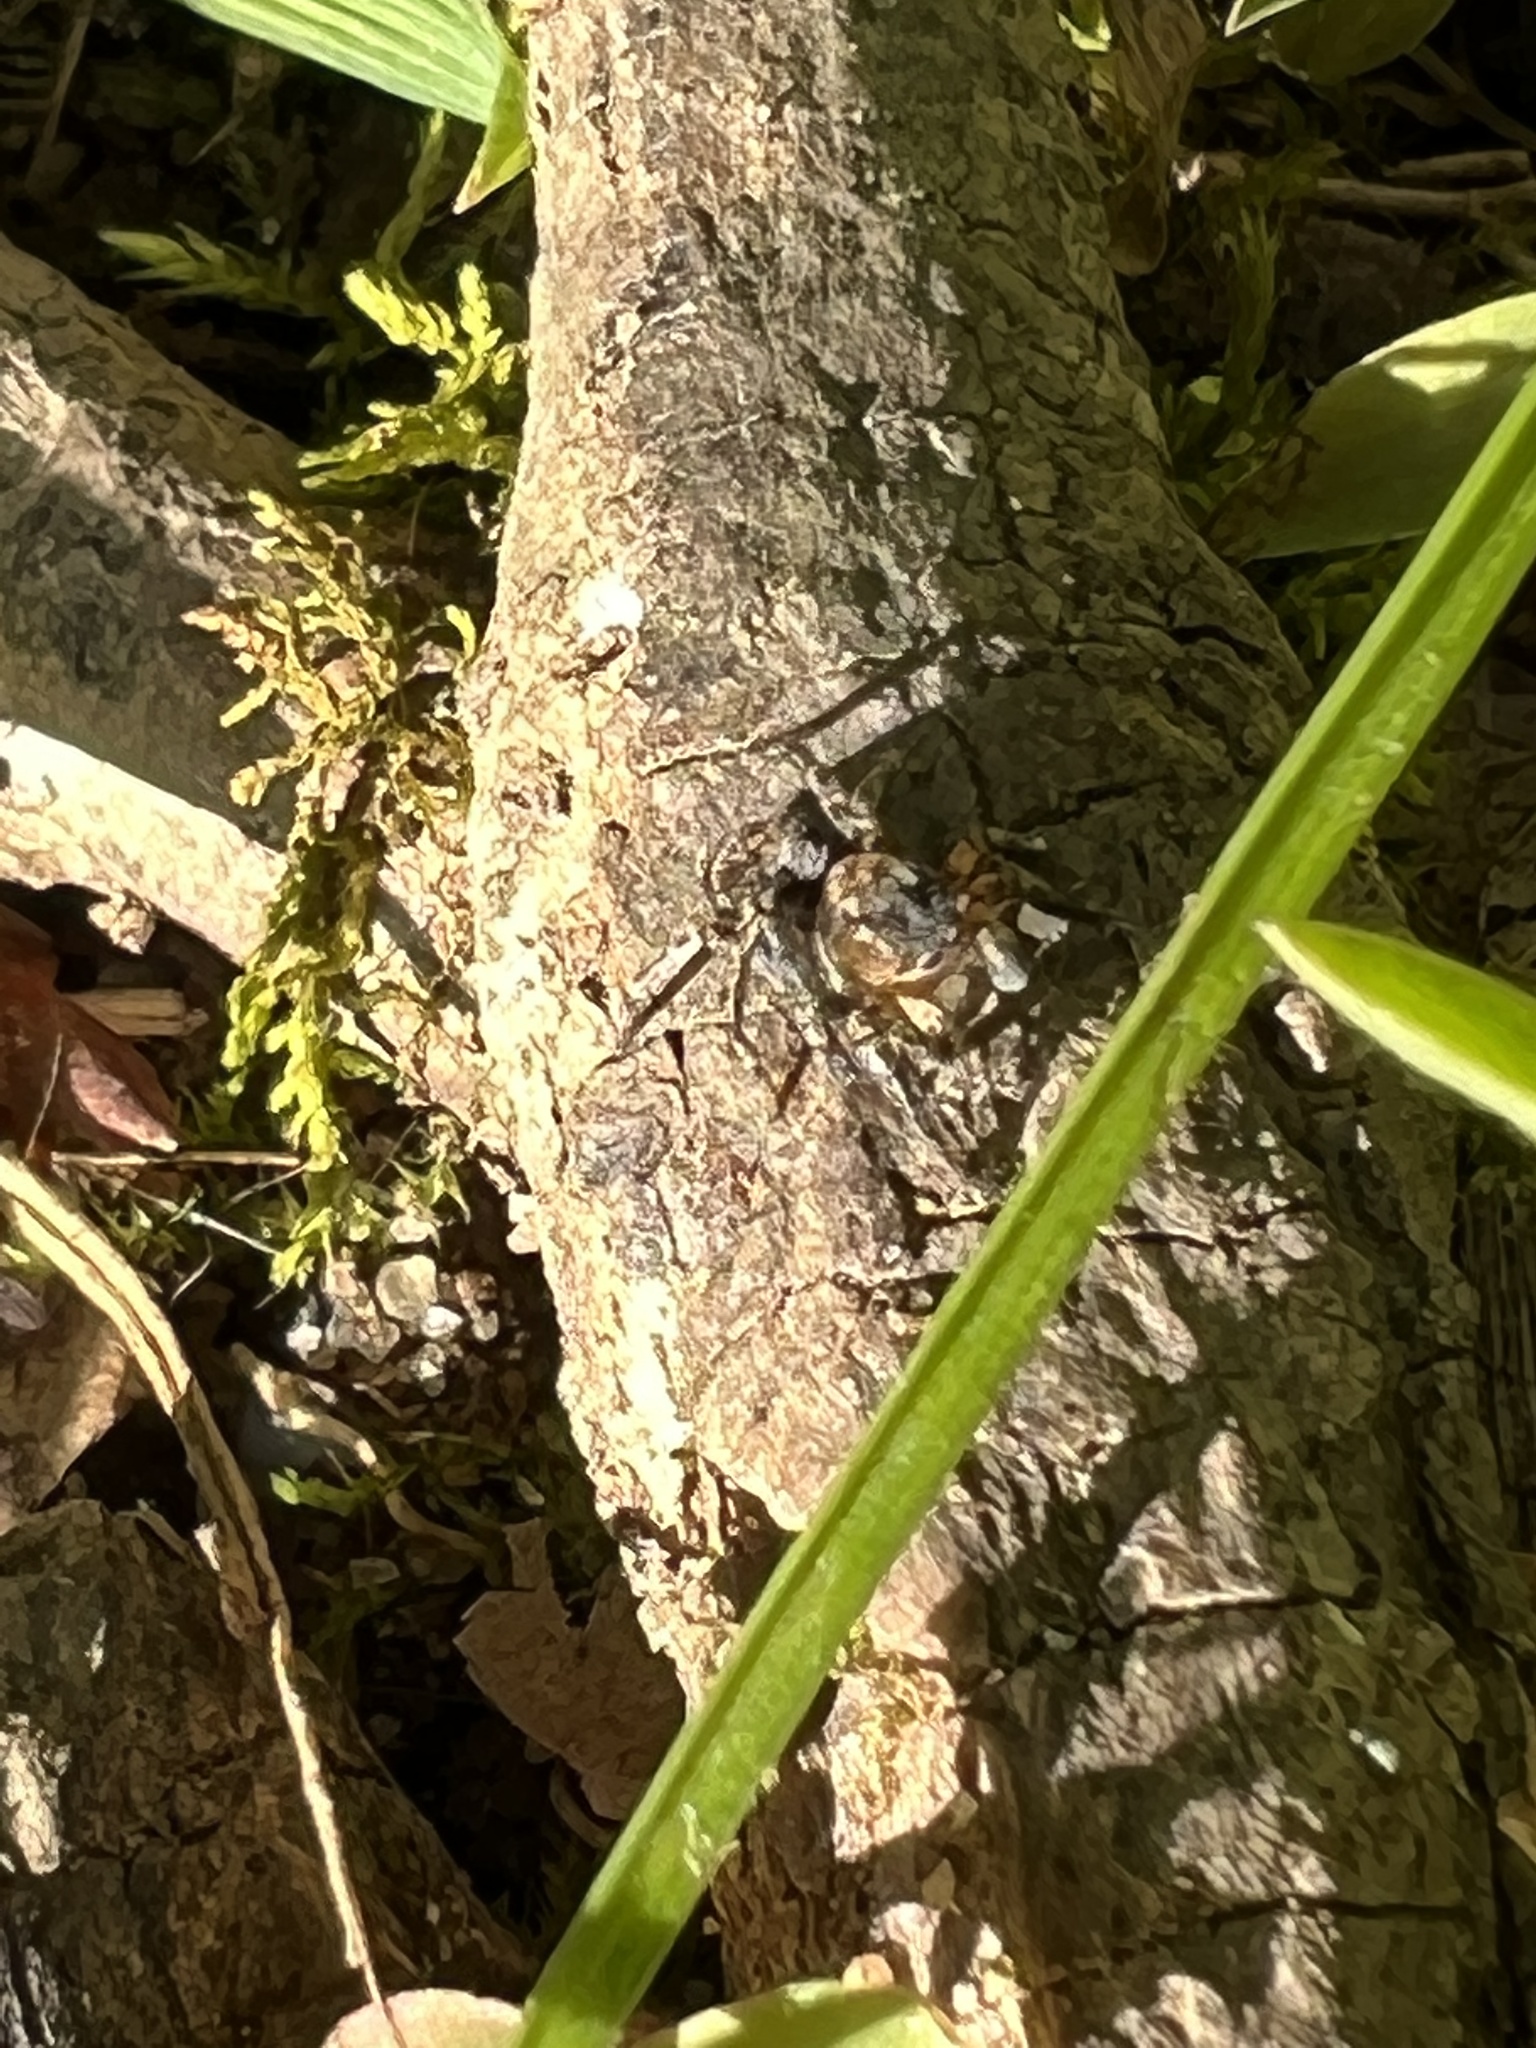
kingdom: Animalia
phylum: Arthropoda
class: Arachnida
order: Araneae
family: Salticidae
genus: Naphrys
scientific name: Naphrys pulex
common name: Flea jumping spider
